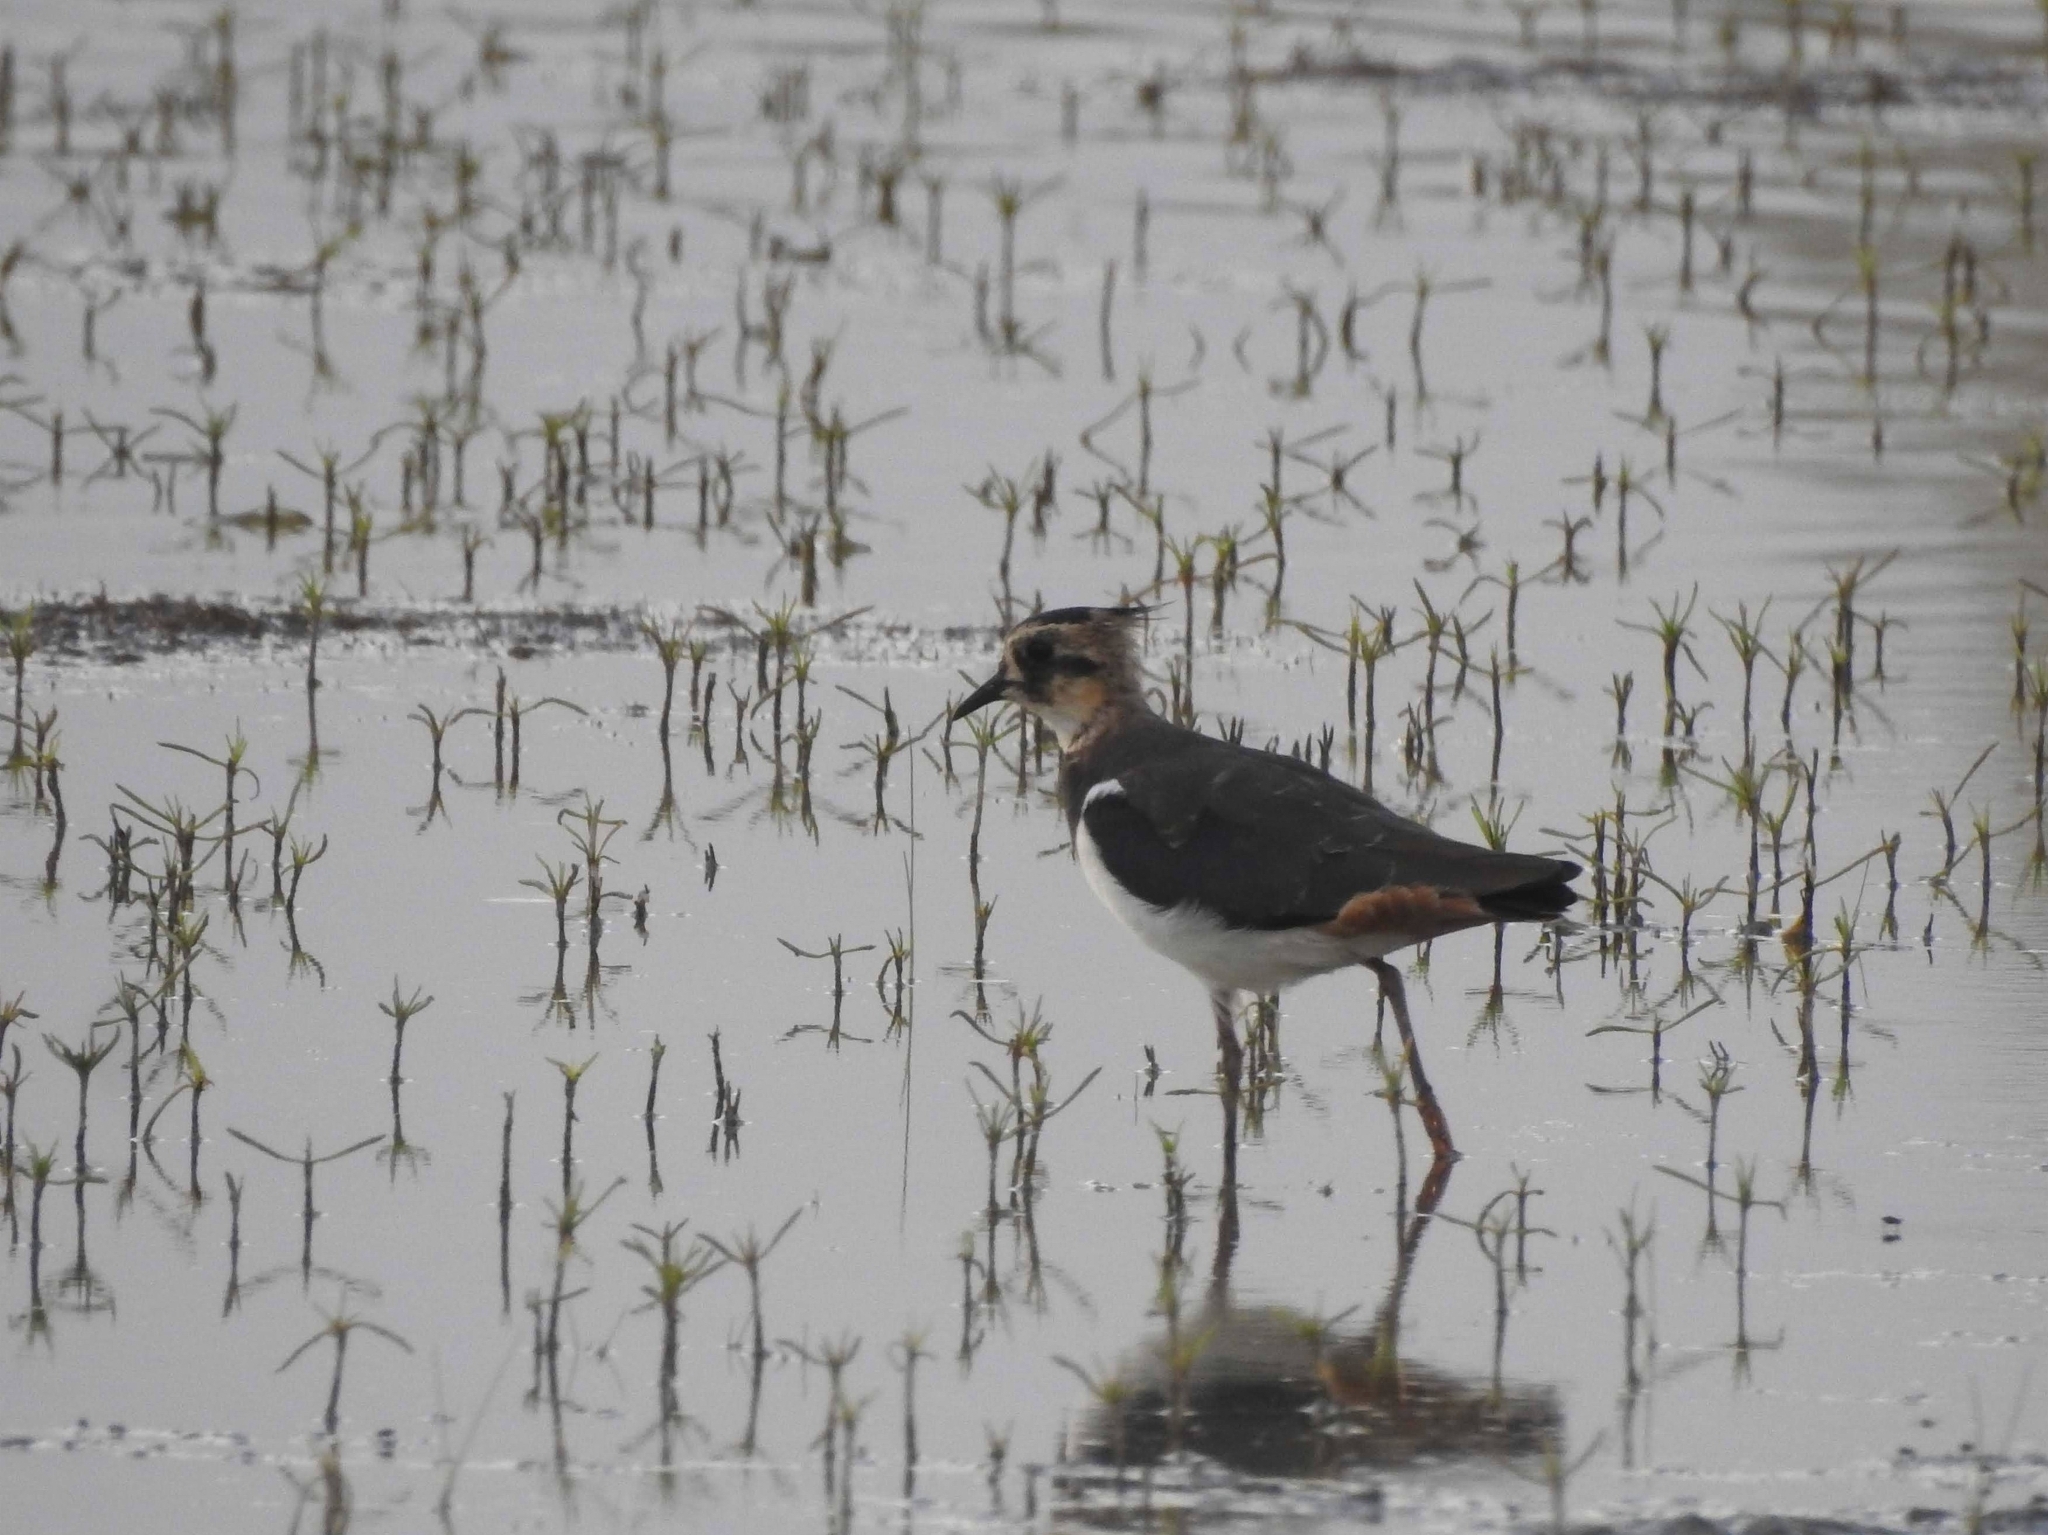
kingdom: Animalia
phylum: Chordata
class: Aves
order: Charadriiformes
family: Charadriidae
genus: Vanellus
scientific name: Vanellus vanellus
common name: Northern lapwing
